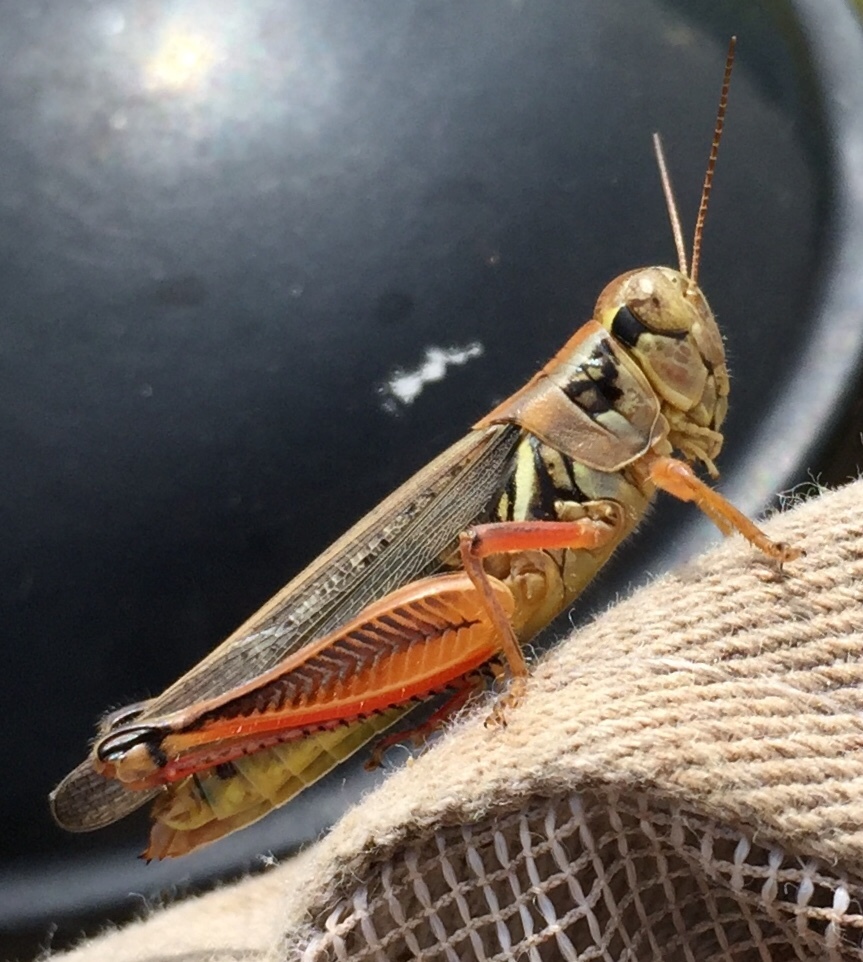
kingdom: Animalia
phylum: Arthropoda
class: Insecta
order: Orthoptera
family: Acrididae
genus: Melanoplus
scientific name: Melanoplus femurrubrum
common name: Red-legged grasshopper
